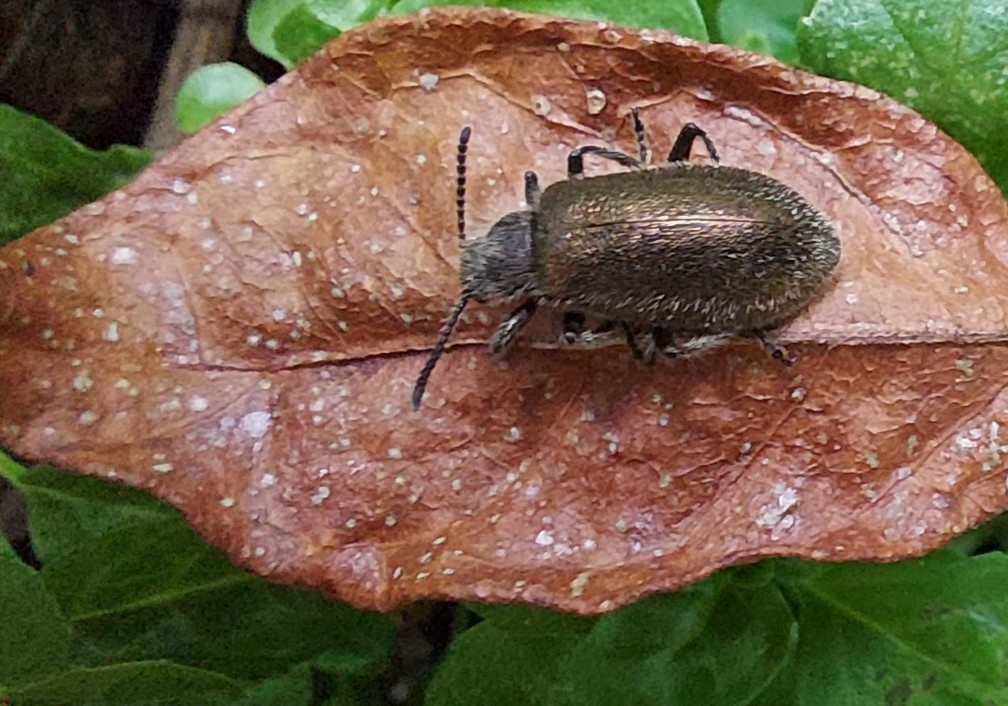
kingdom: Animalia
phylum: Arthropoda
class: Insecta
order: Coleoptera
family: Tenebrionidae
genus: Lagria
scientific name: Lagria villosa
